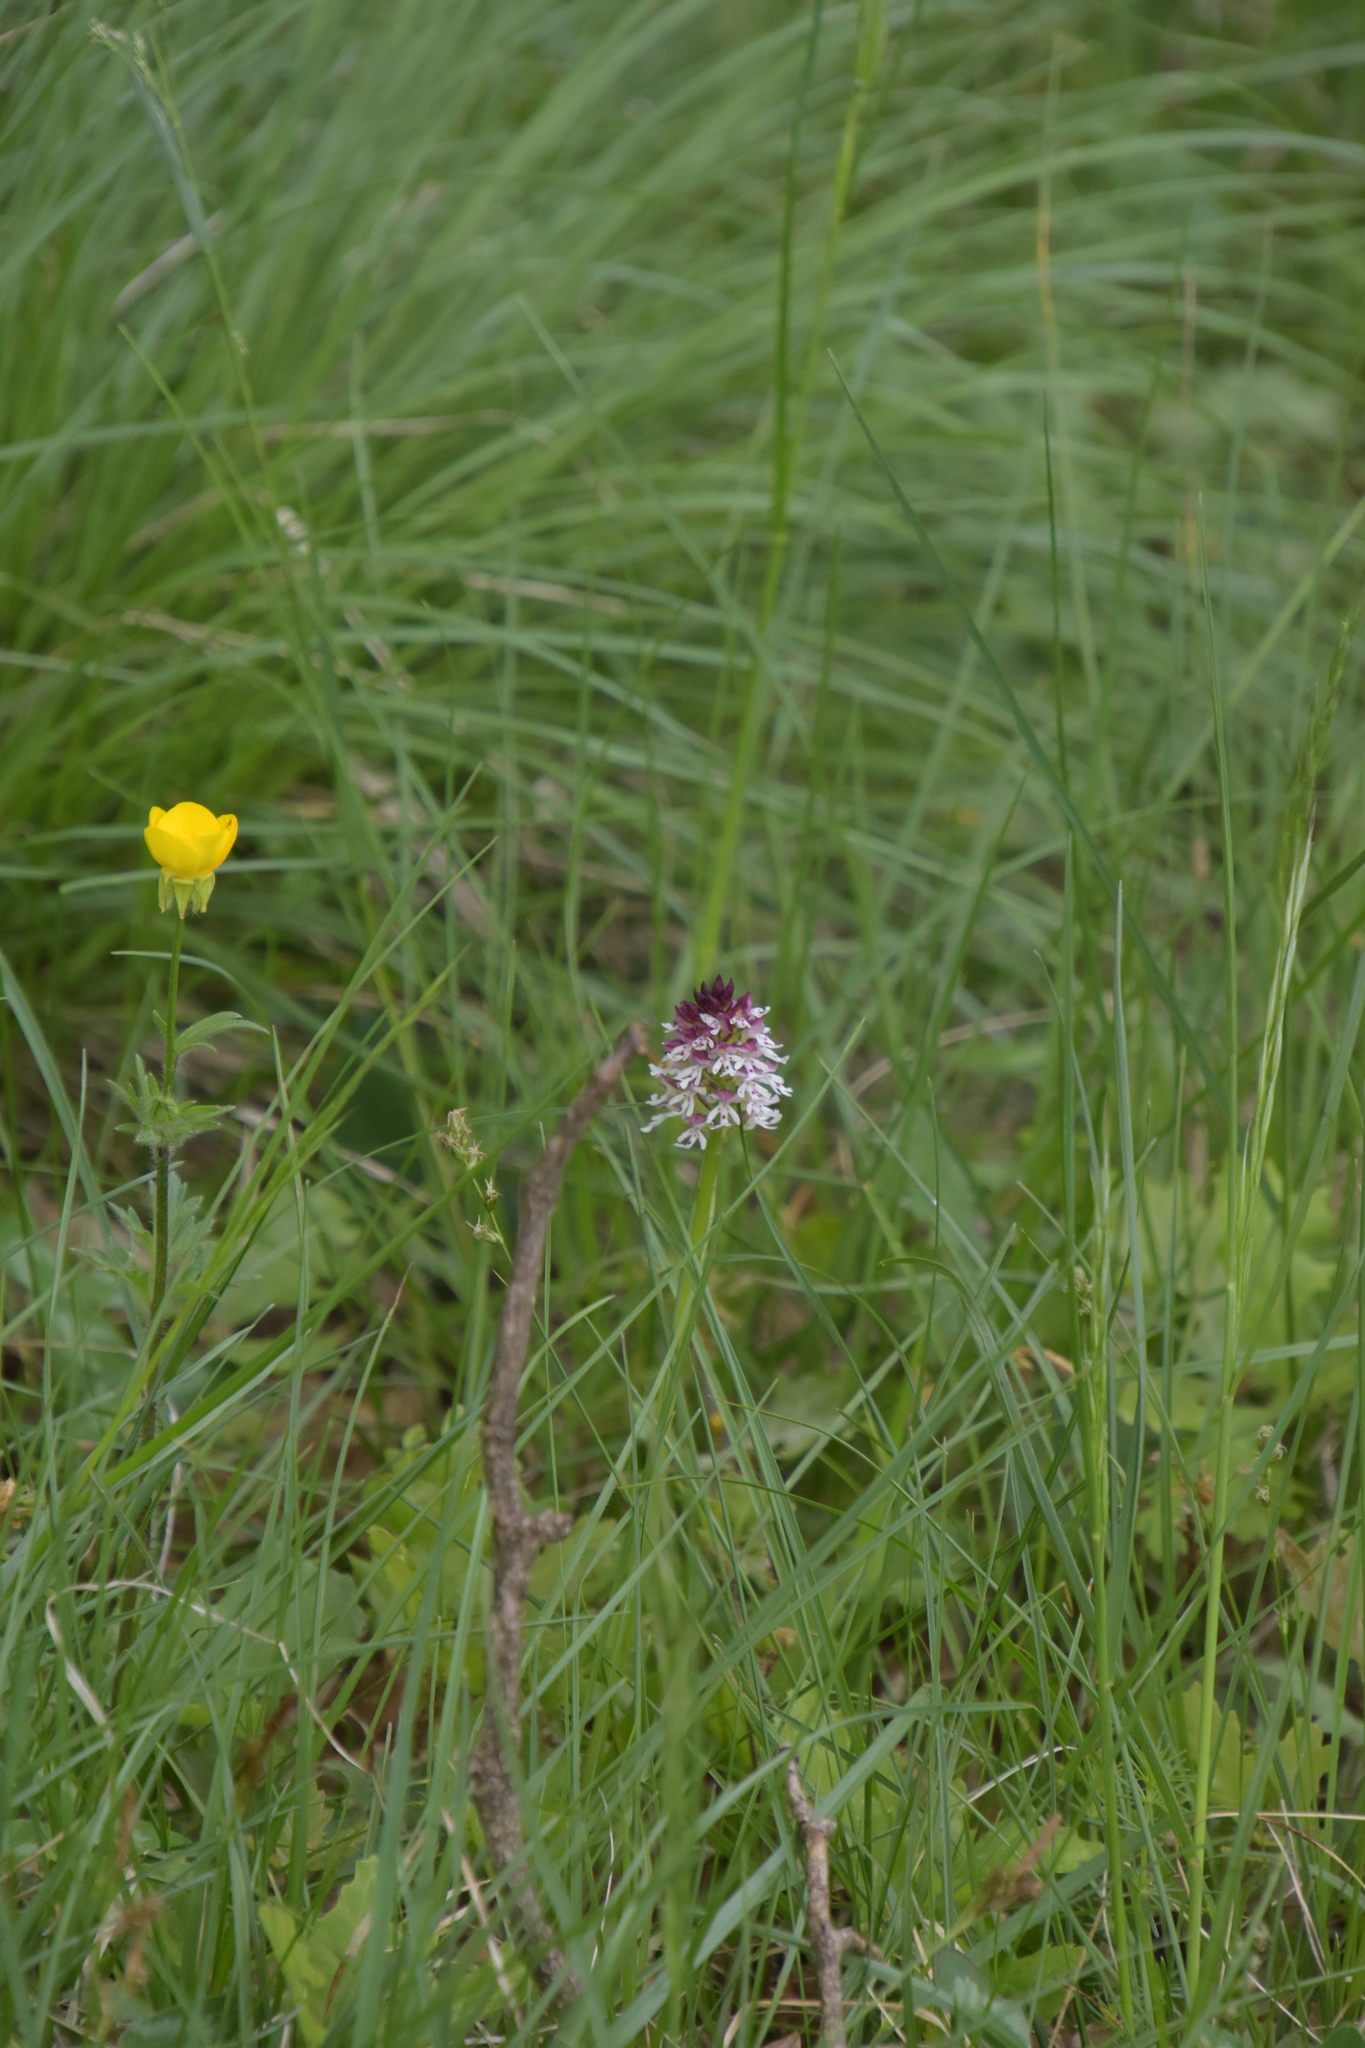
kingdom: Plantae
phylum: Tracheophyta
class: Liliopsida
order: Asparagales
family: Orchidaceae
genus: Neotinea
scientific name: Neotinea ustulata
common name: Burnt orchid
